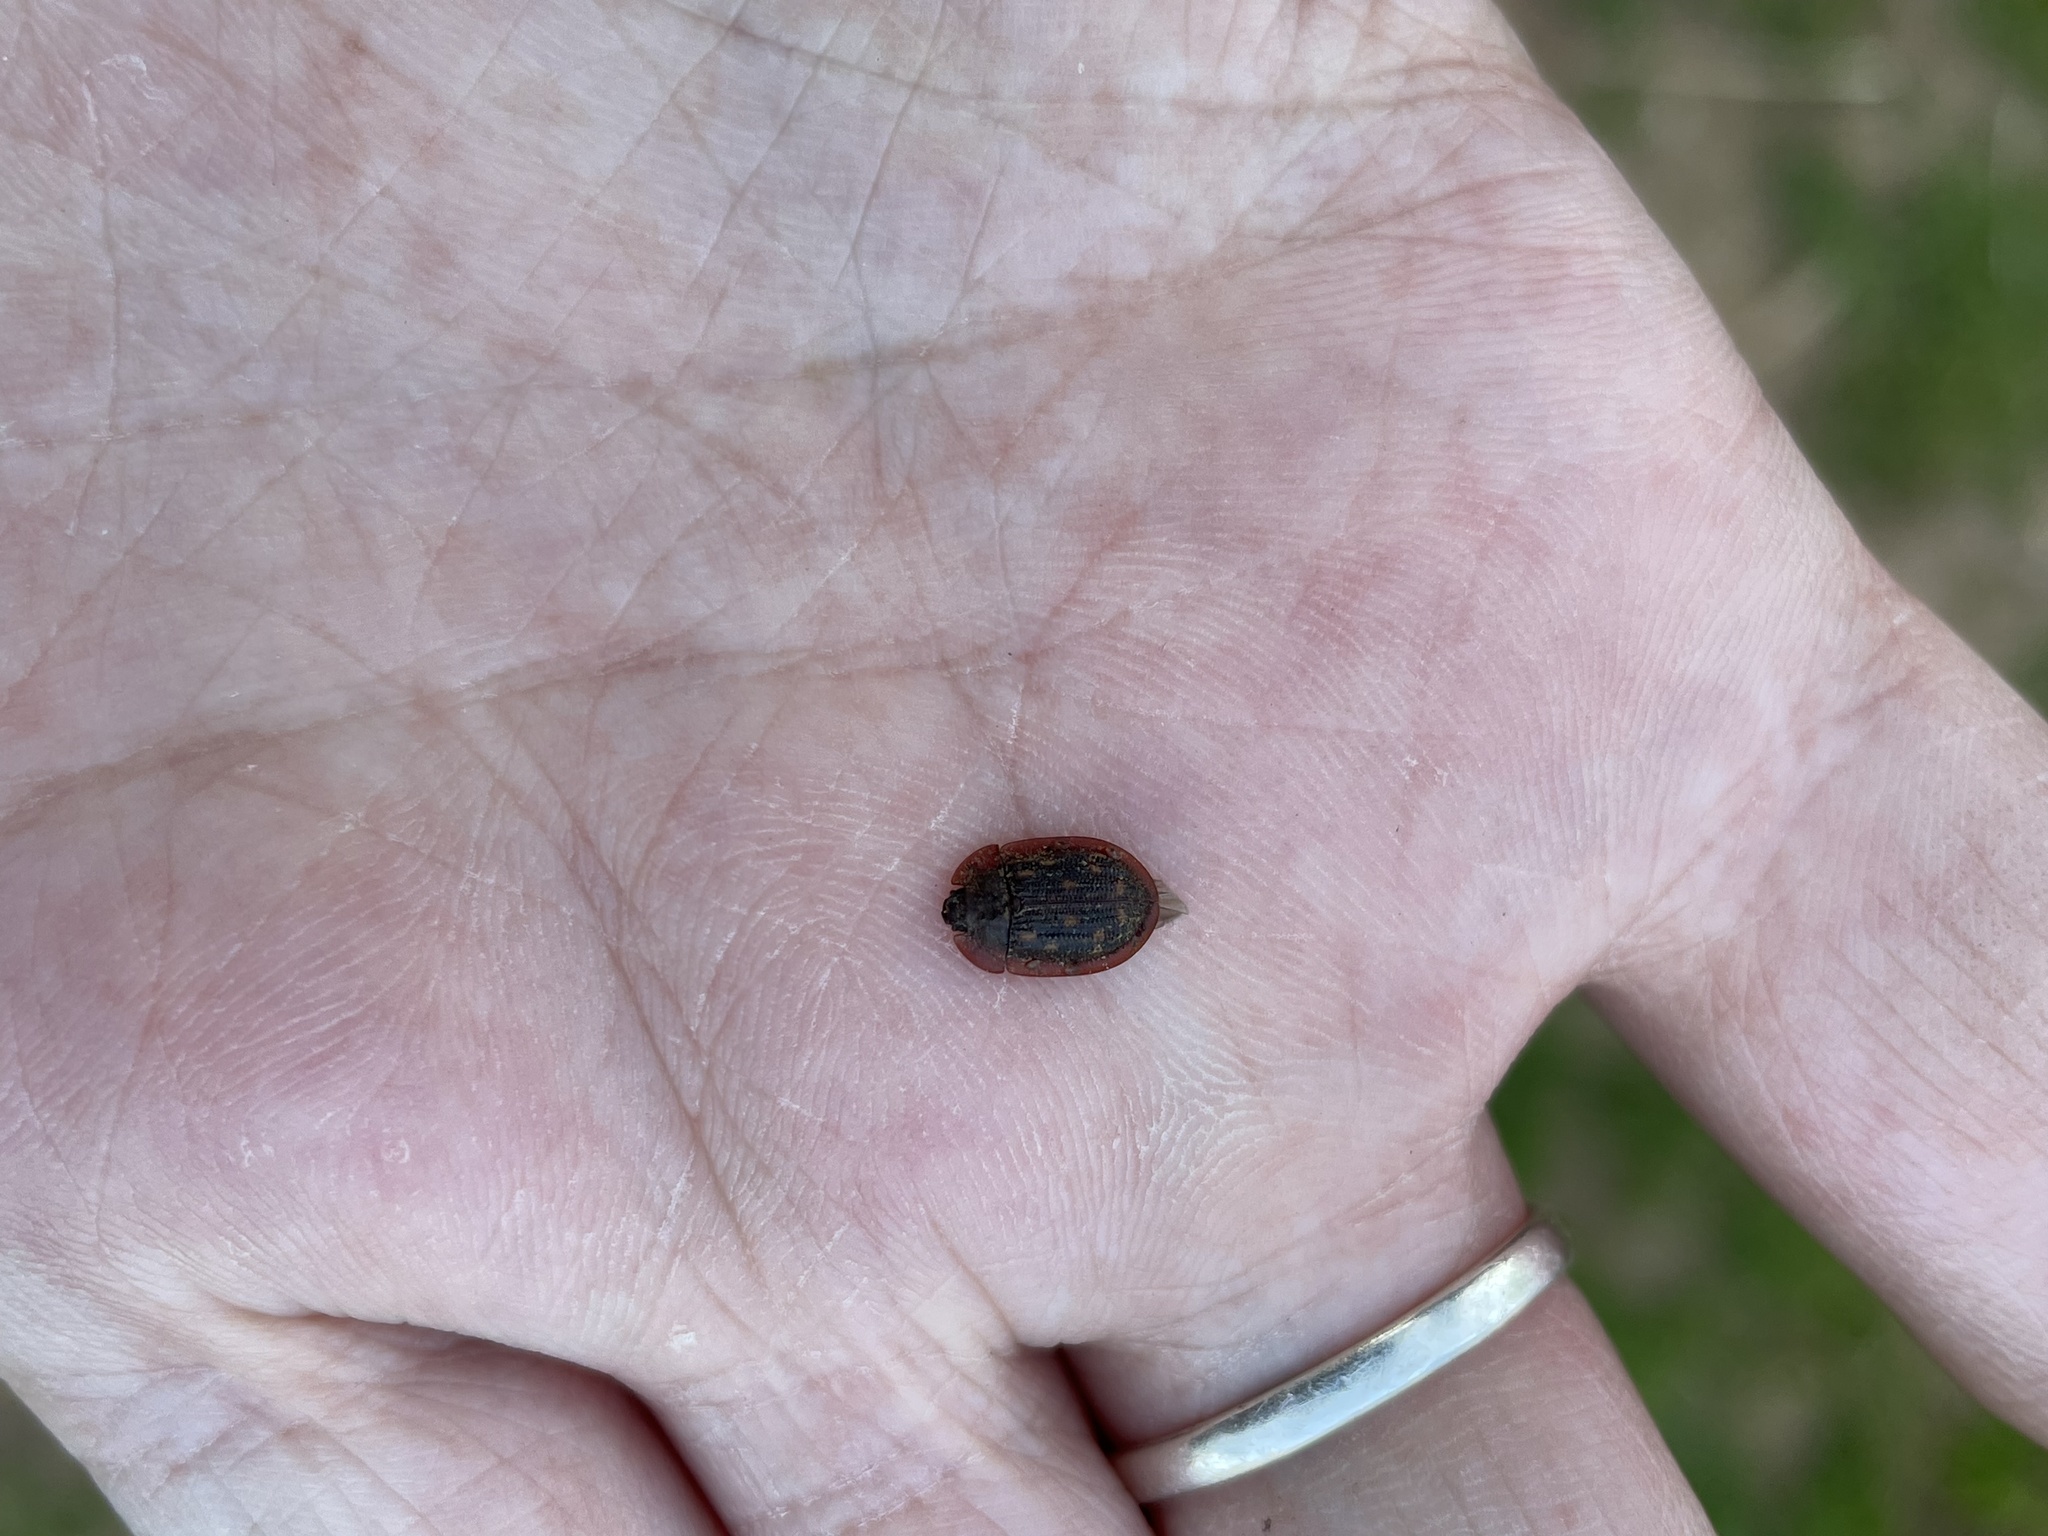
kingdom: Animalia
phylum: Arthropoda
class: Insecta
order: Coleoptera
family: Trogossitidae
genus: Peltis
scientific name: Peltis pippingskoeldi
